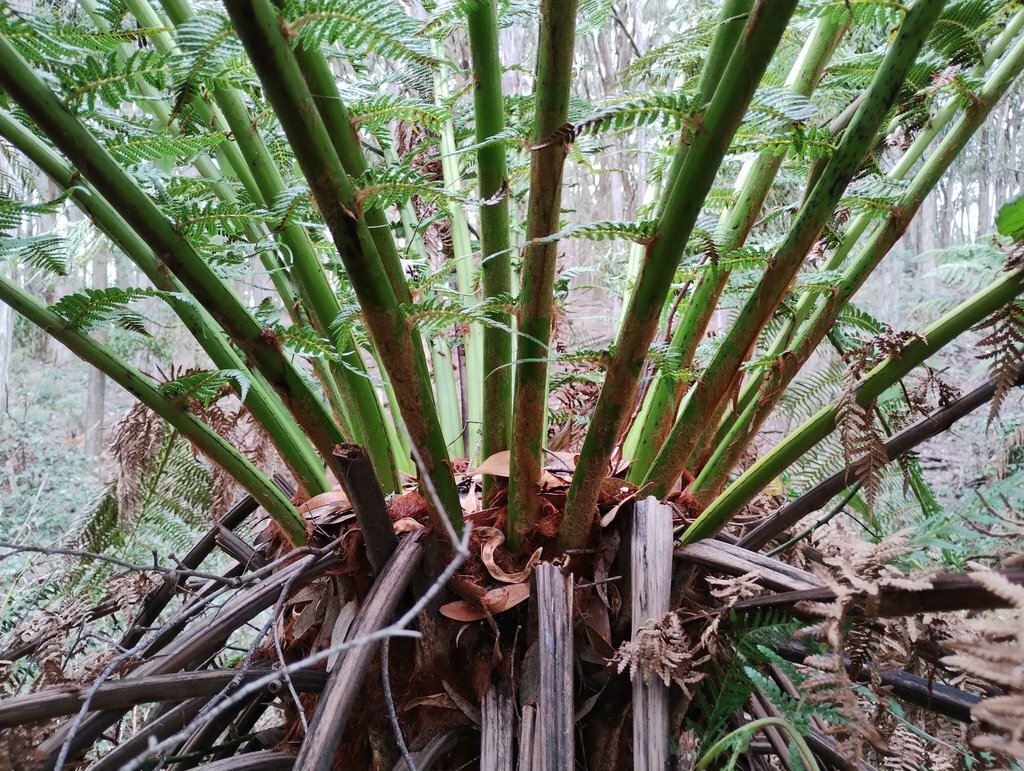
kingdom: Plantae
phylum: Tracheophyta
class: Polypodiopsida
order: Cyatheales
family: Dicksoniaceae
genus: Dicksonia
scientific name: Dicksonia antarctica
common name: Australian treefern
